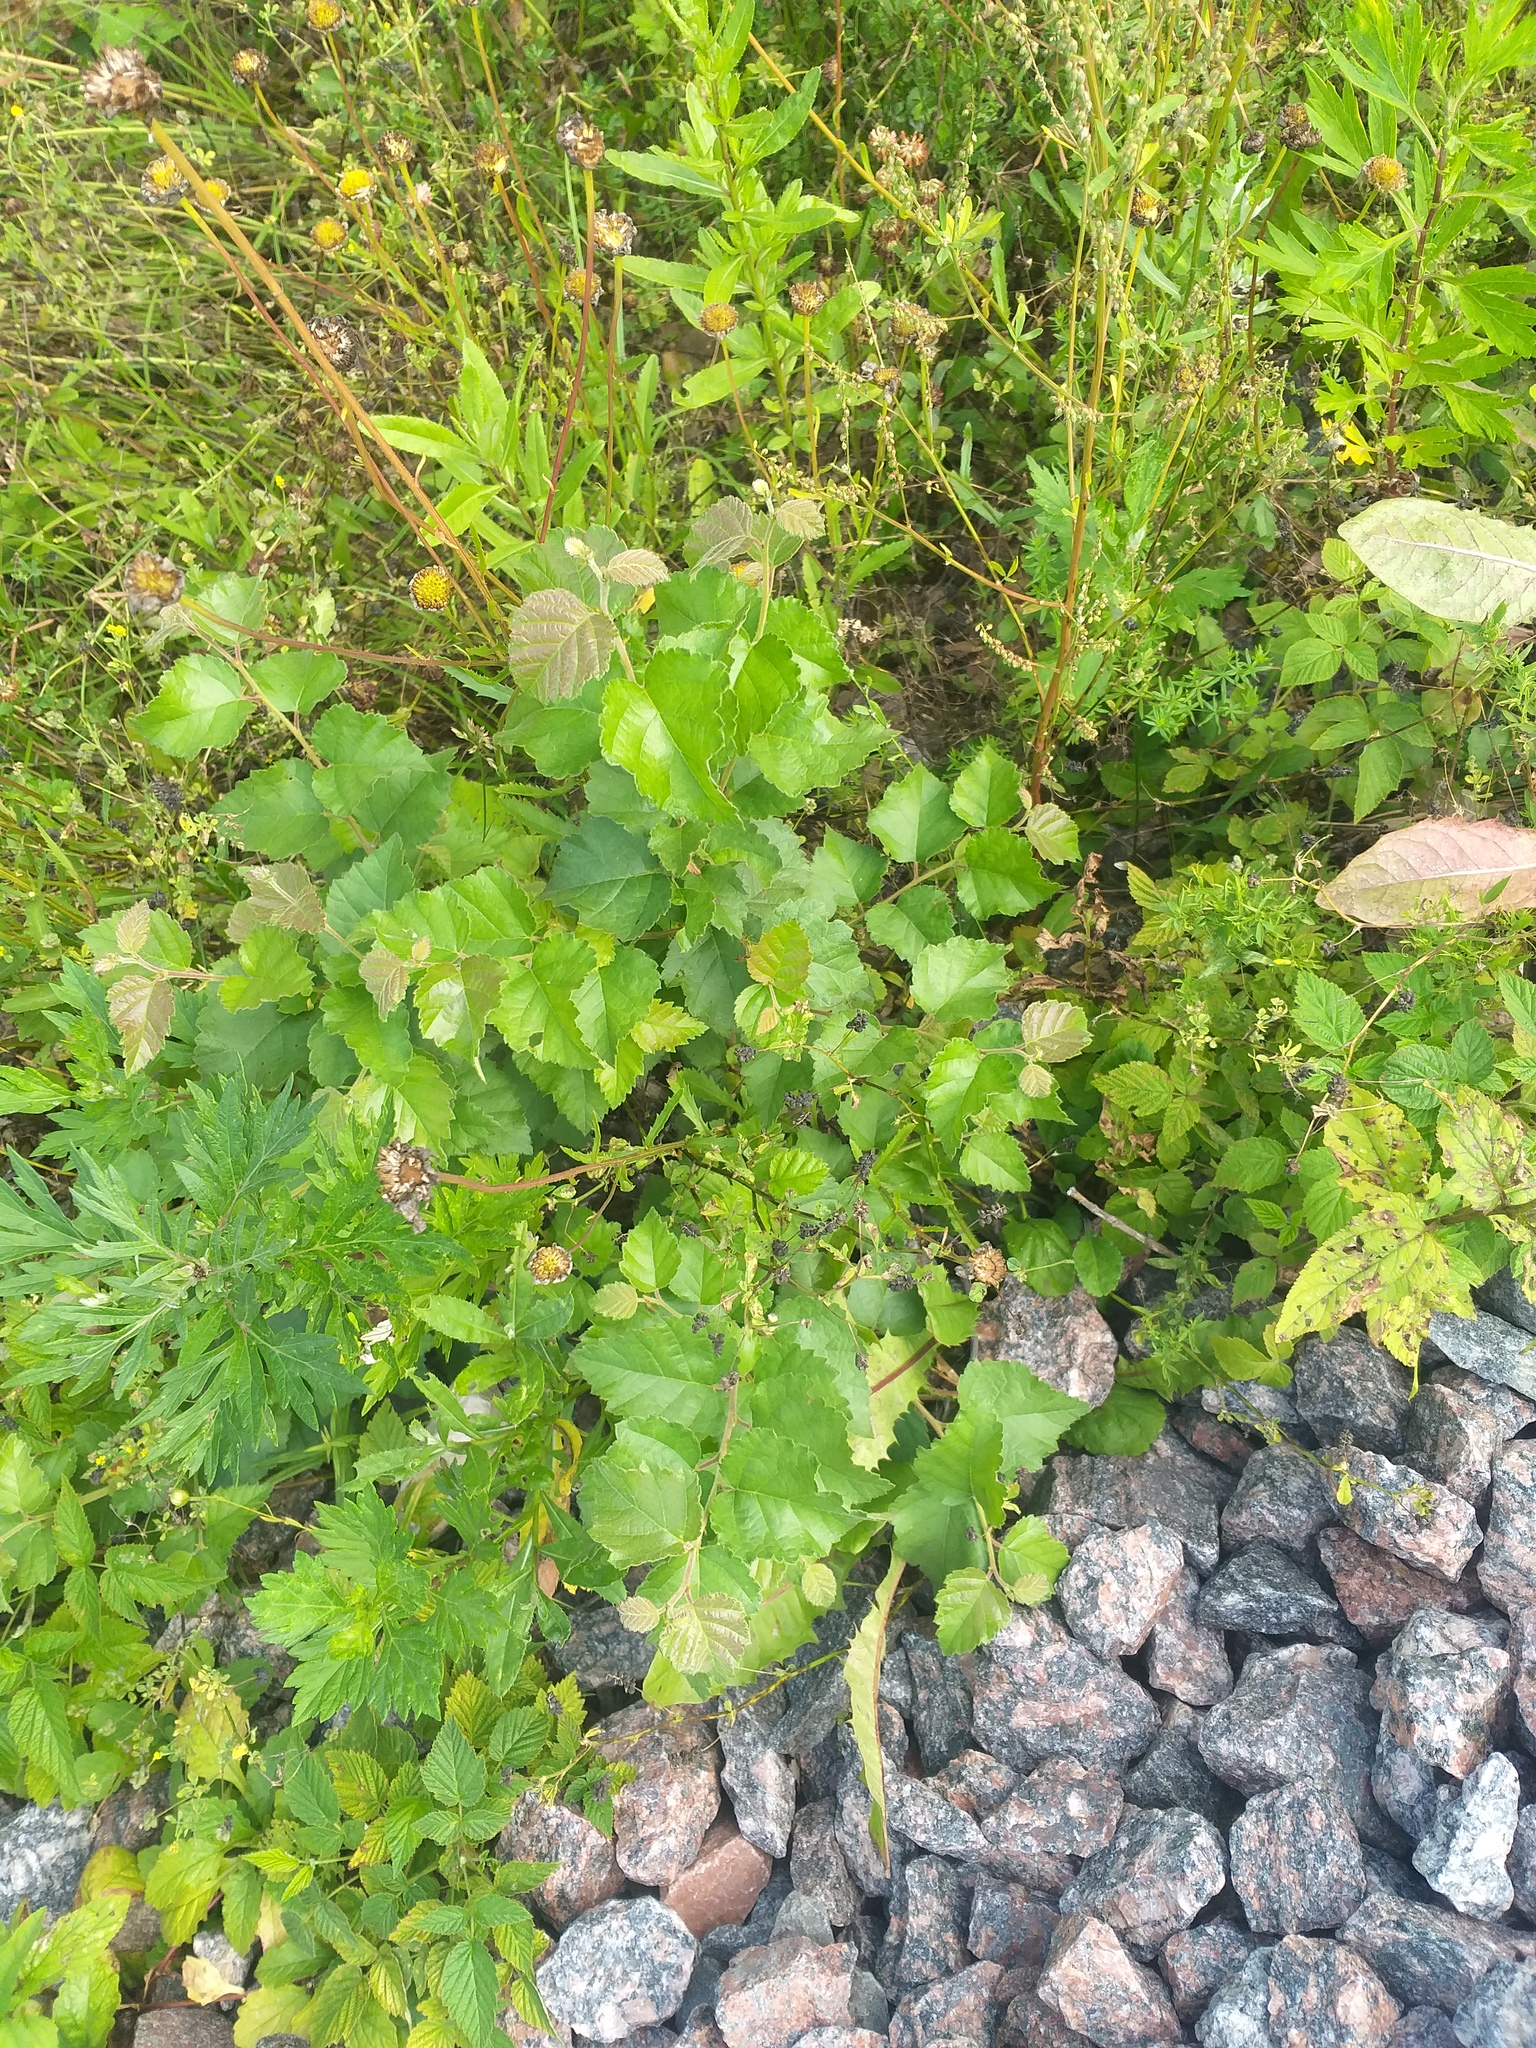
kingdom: Plantae
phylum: Tracheophyta
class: Magnoliopsida
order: Fagales
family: Betulaceae
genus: Betula
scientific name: Betula pubescens
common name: Downy birch
